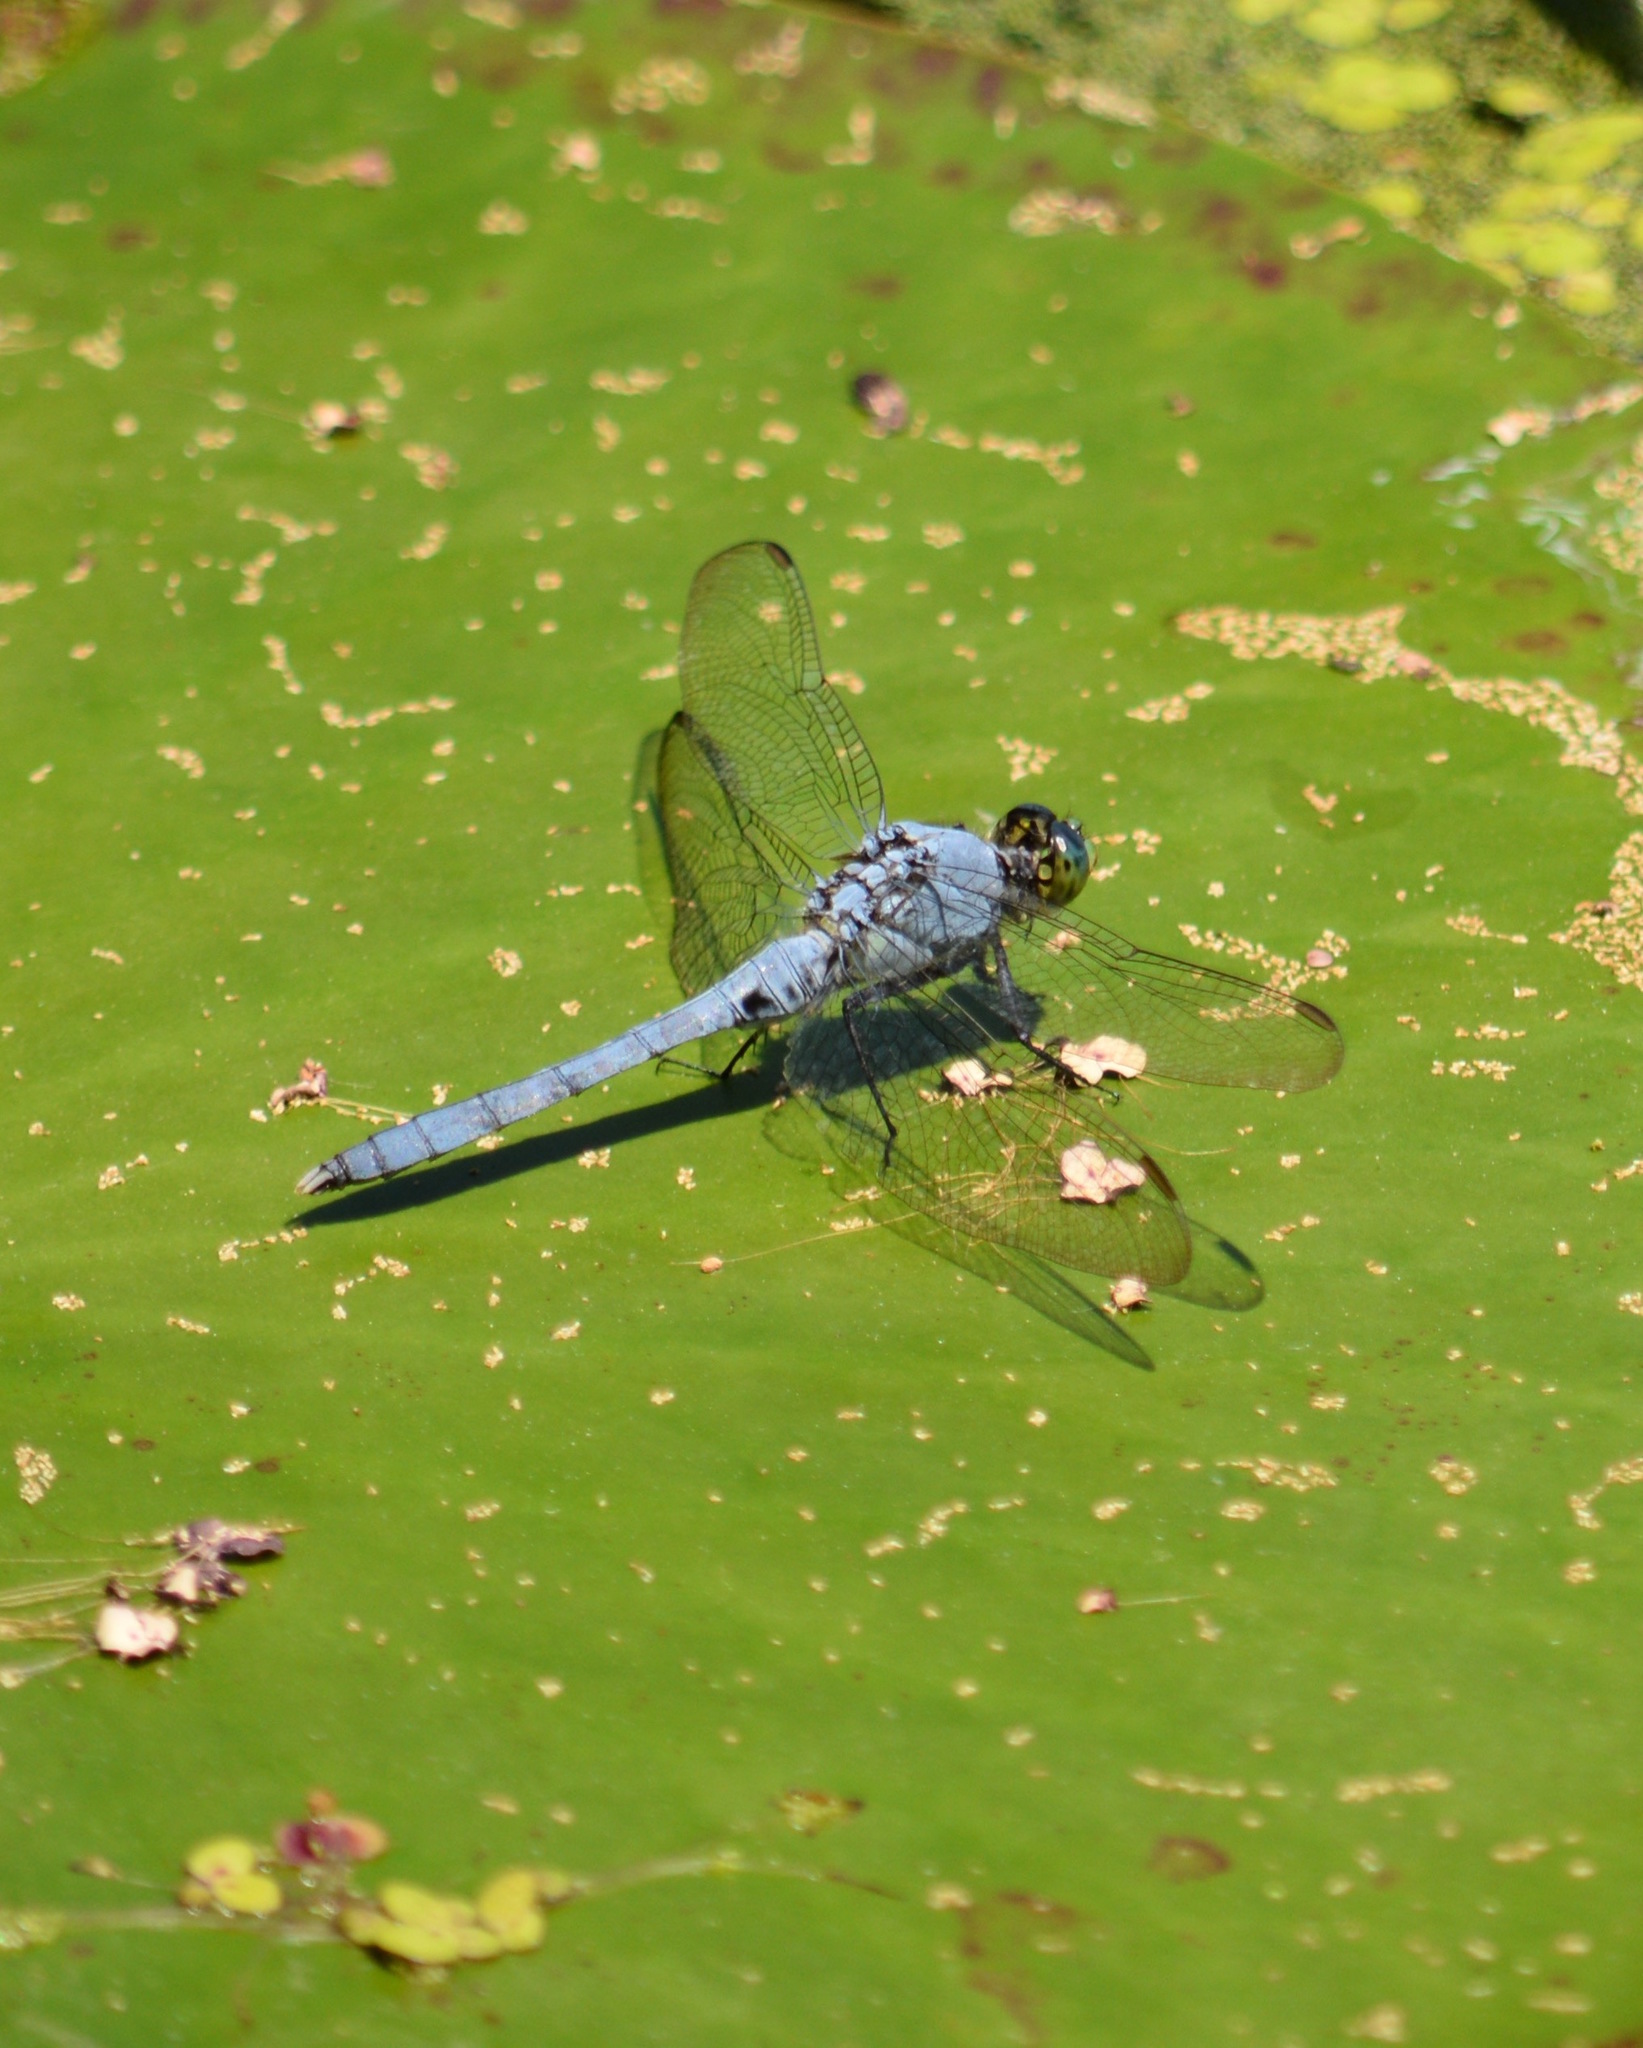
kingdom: Animalia
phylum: Arthropoda
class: Insecta
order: Odonata
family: Libellulidae
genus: Erythemis
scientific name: Erythemis simplicicollis
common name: Eastern pondhawk
